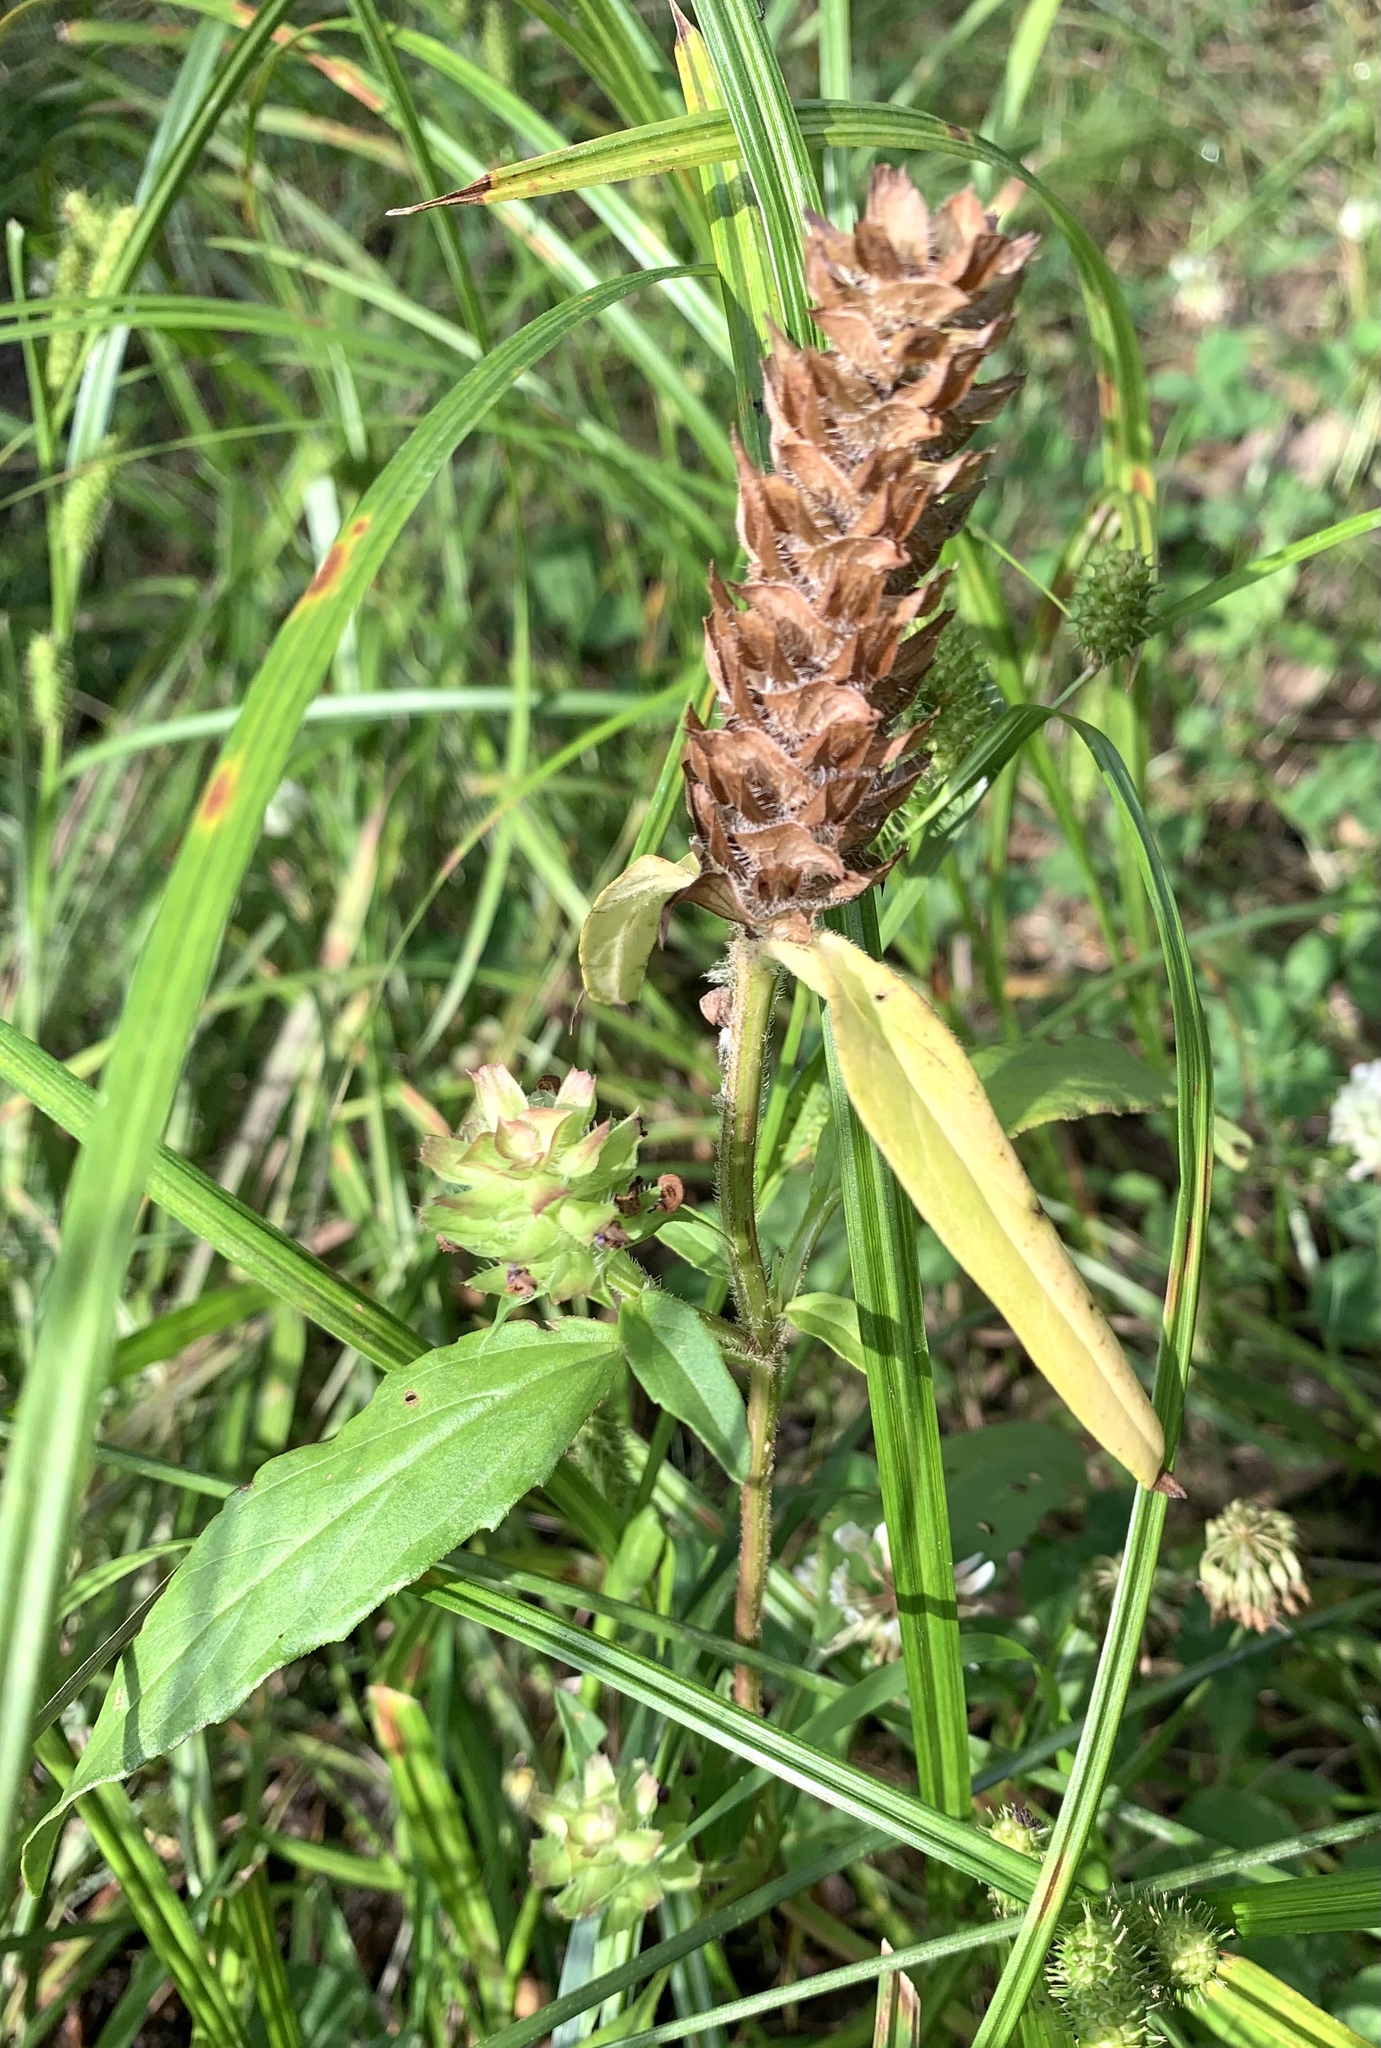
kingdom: Plantae
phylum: Tracheophyta
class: Magnoliopsida
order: Lamiales
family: Lamiaceae
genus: Prunella
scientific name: Prunella vulgaris
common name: Heal-all
